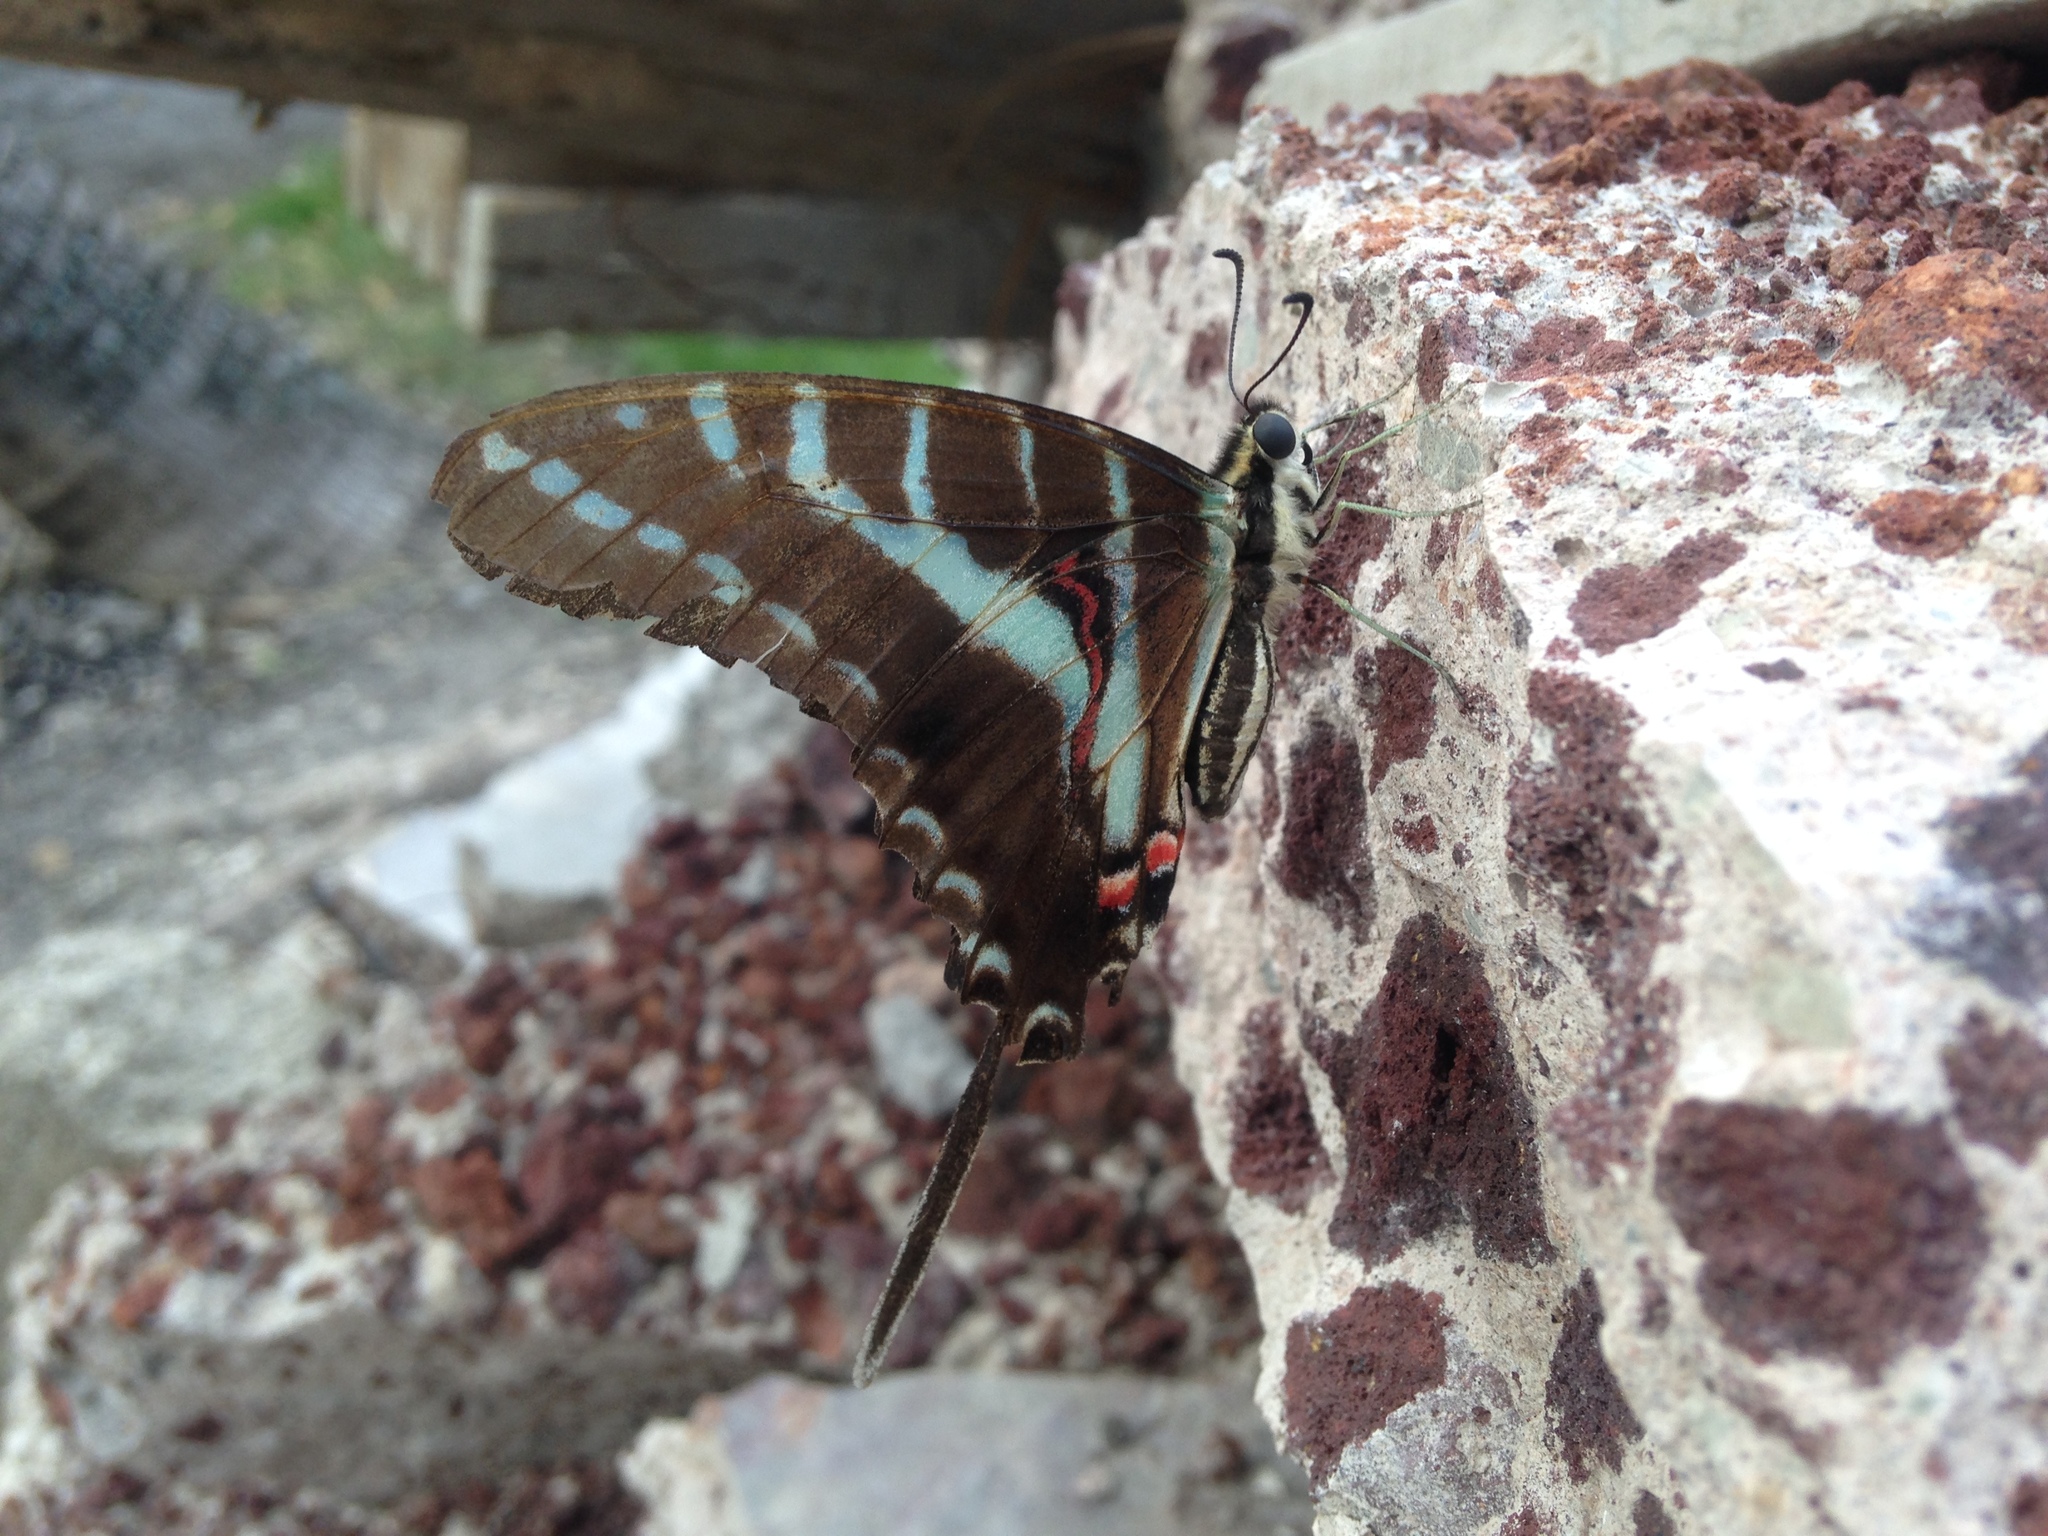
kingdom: Animalia
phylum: Arthropoda
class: Insecta
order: Lepidoptera
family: Papilionidae
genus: Protographium
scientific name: Protographium philolaus
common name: Dark zebra swallowtail
